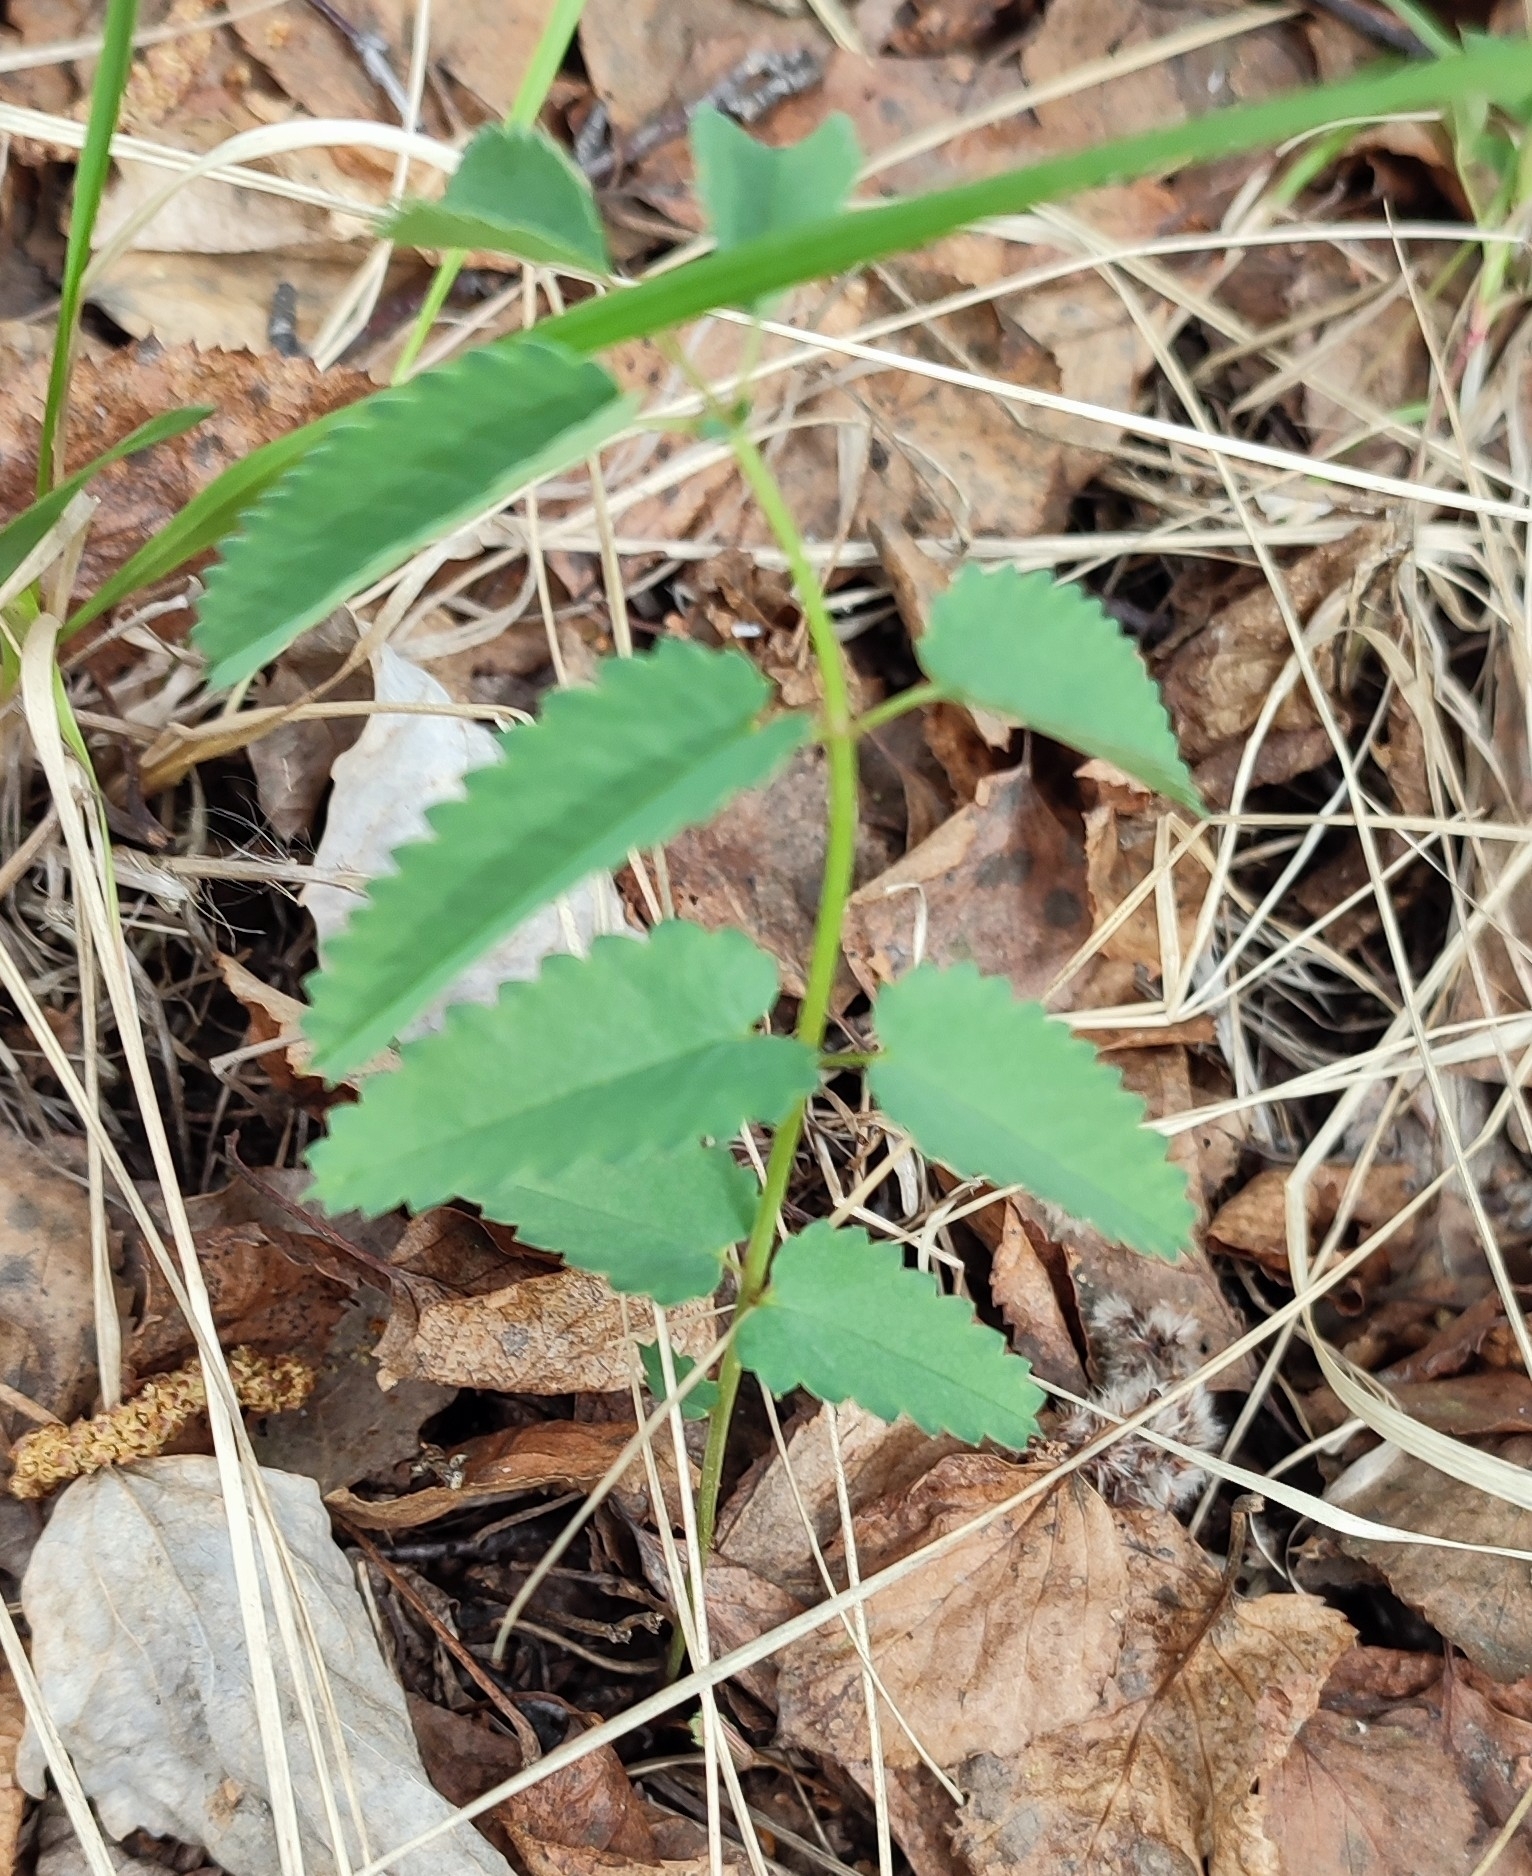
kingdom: Plantae
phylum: Tracheophyta
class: Magnoliopsida
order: Rosales
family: Rosaceae
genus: Sanguisorba
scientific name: Sanguisorba officinalis
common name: Great burnet
